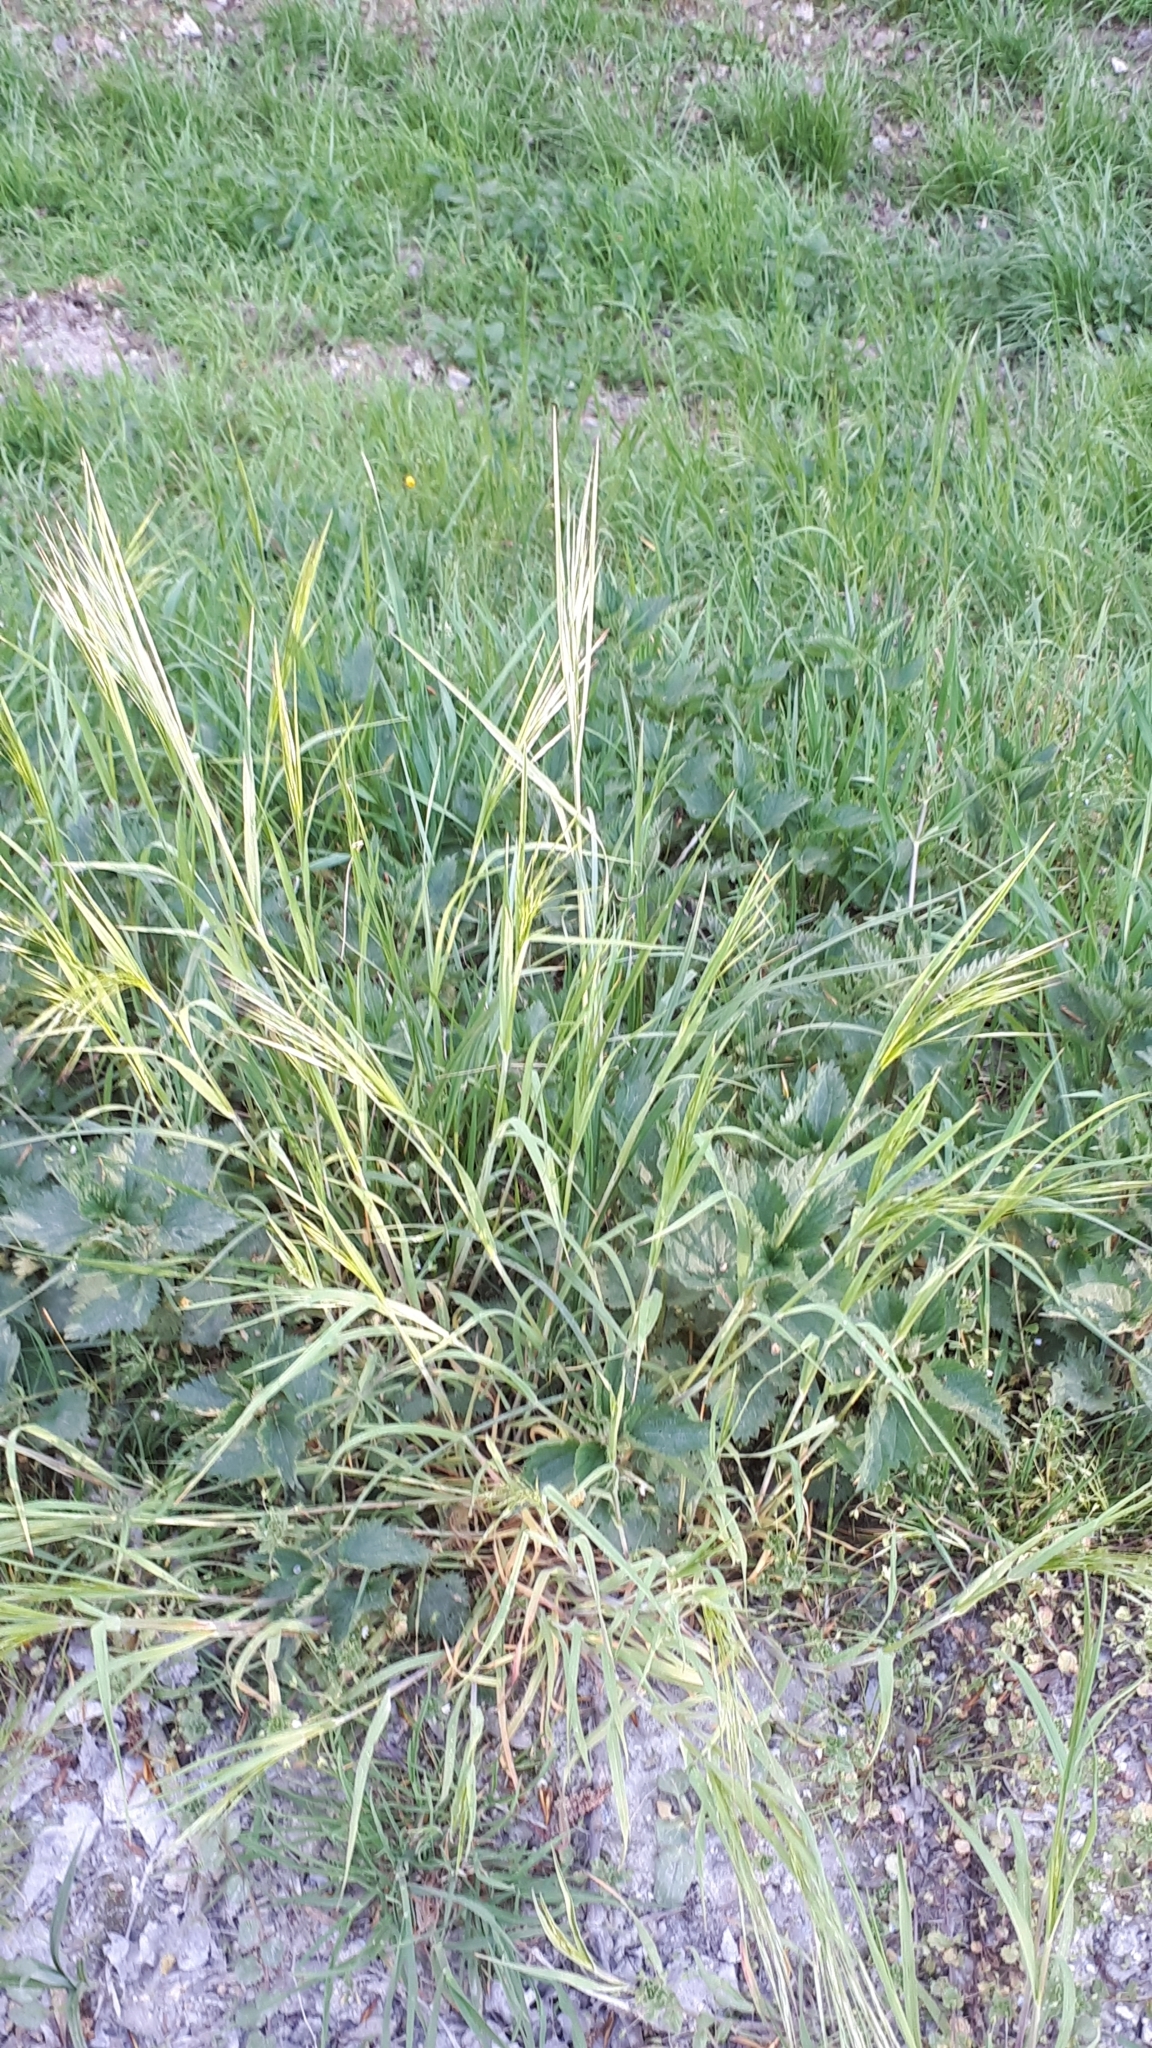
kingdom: Plantae
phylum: Tracheophyta
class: Liliopsida
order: Poales
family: Poaceae
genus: Bromus
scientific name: Bromus sterilis
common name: Poverty brome
